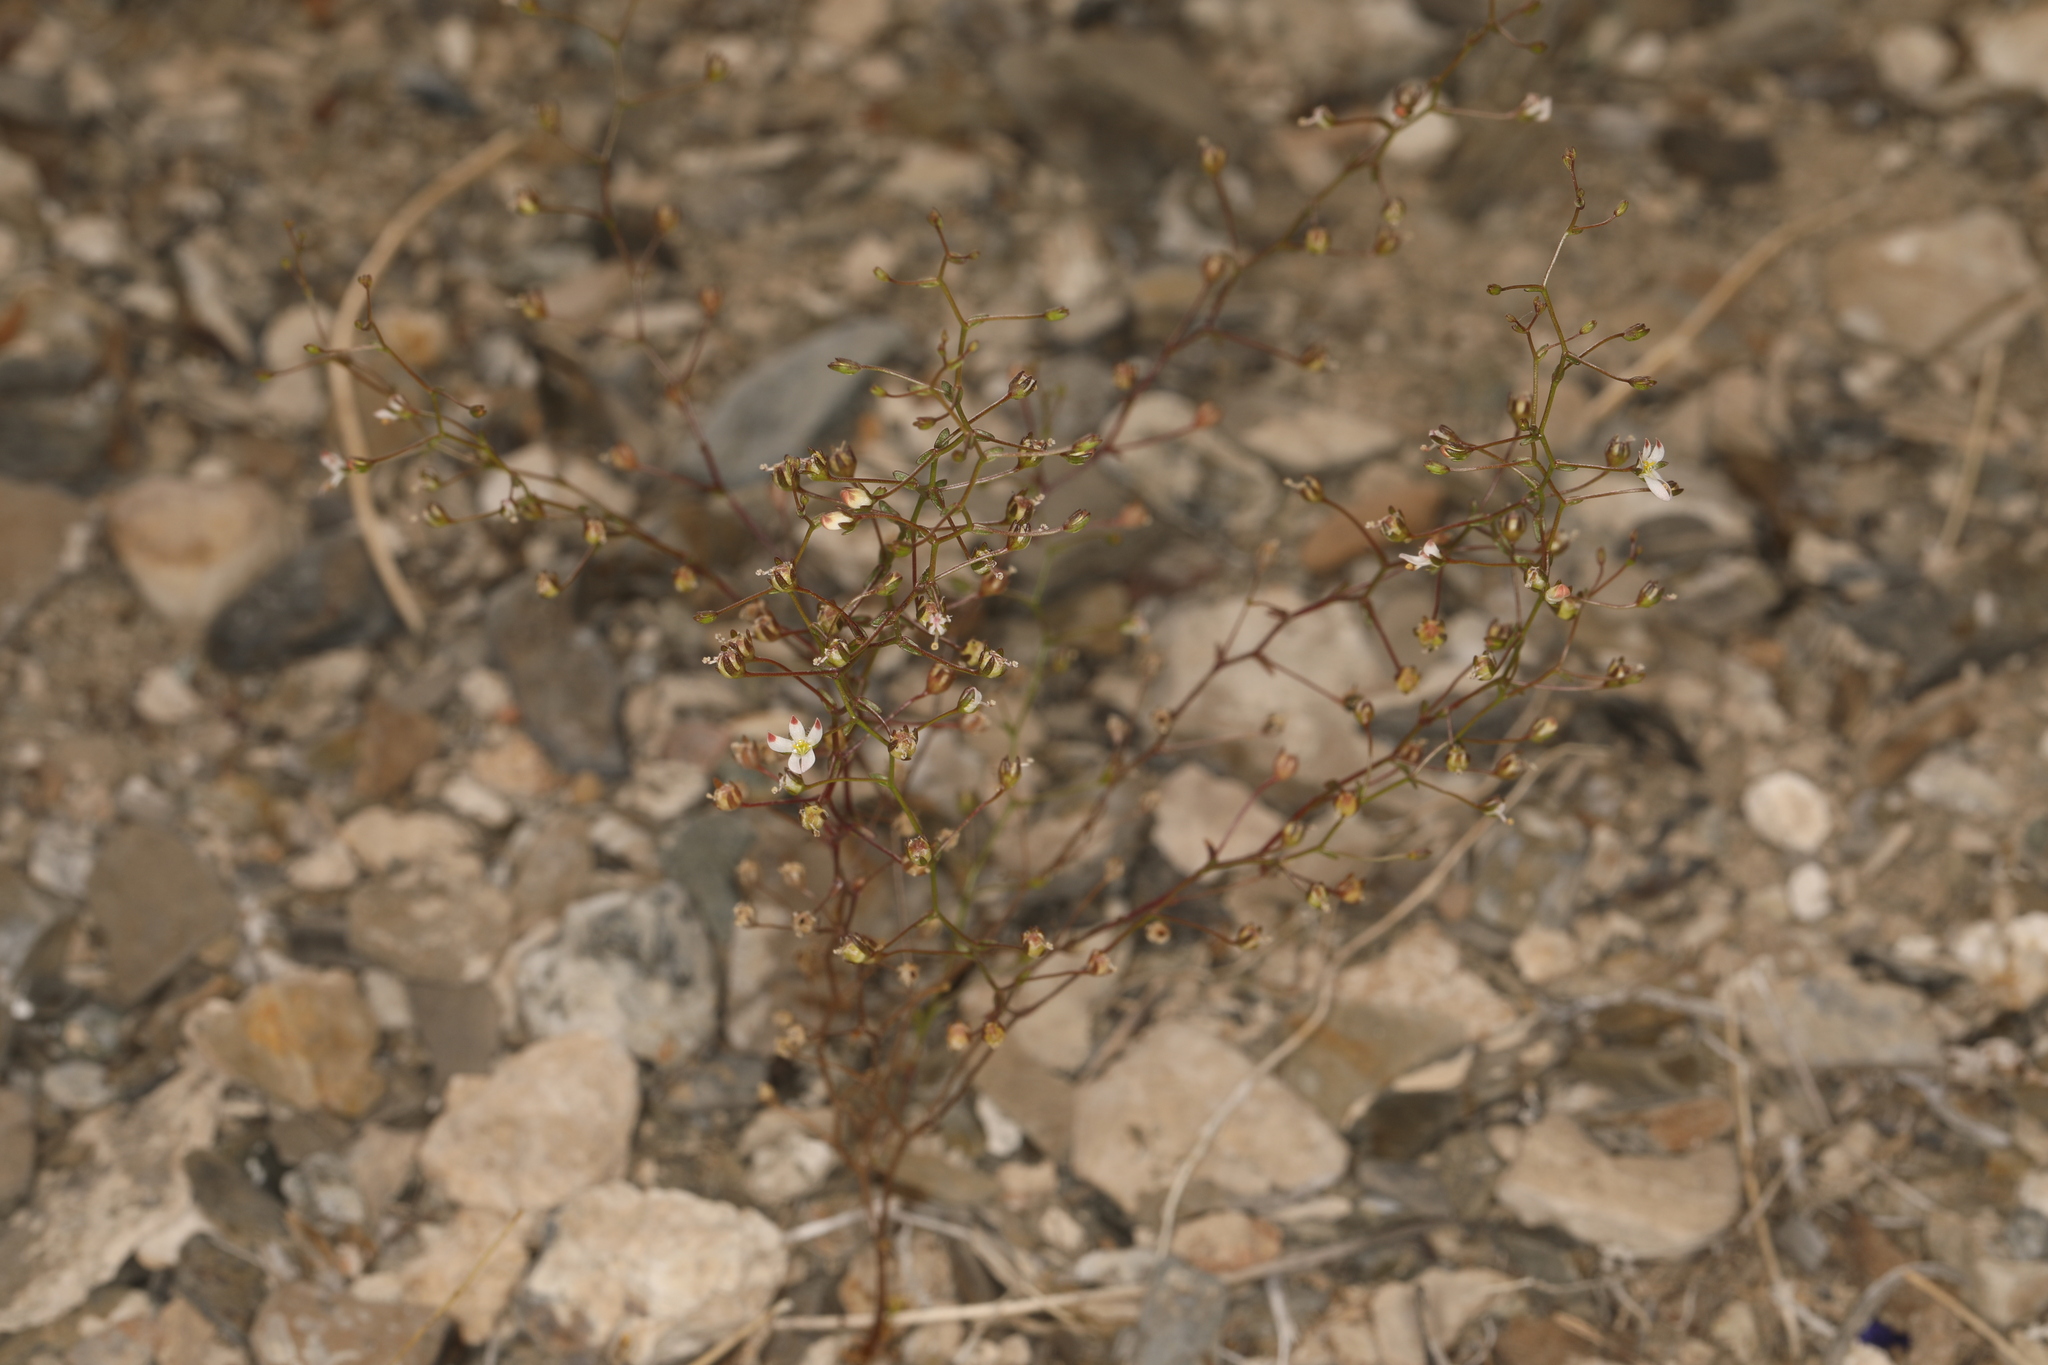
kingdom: Plantae
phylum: Tracheophyta
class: Magnoliopsida
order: Asterales
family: Campanulaceae
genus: Nemacladus
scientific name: Nemacladus orientalis
